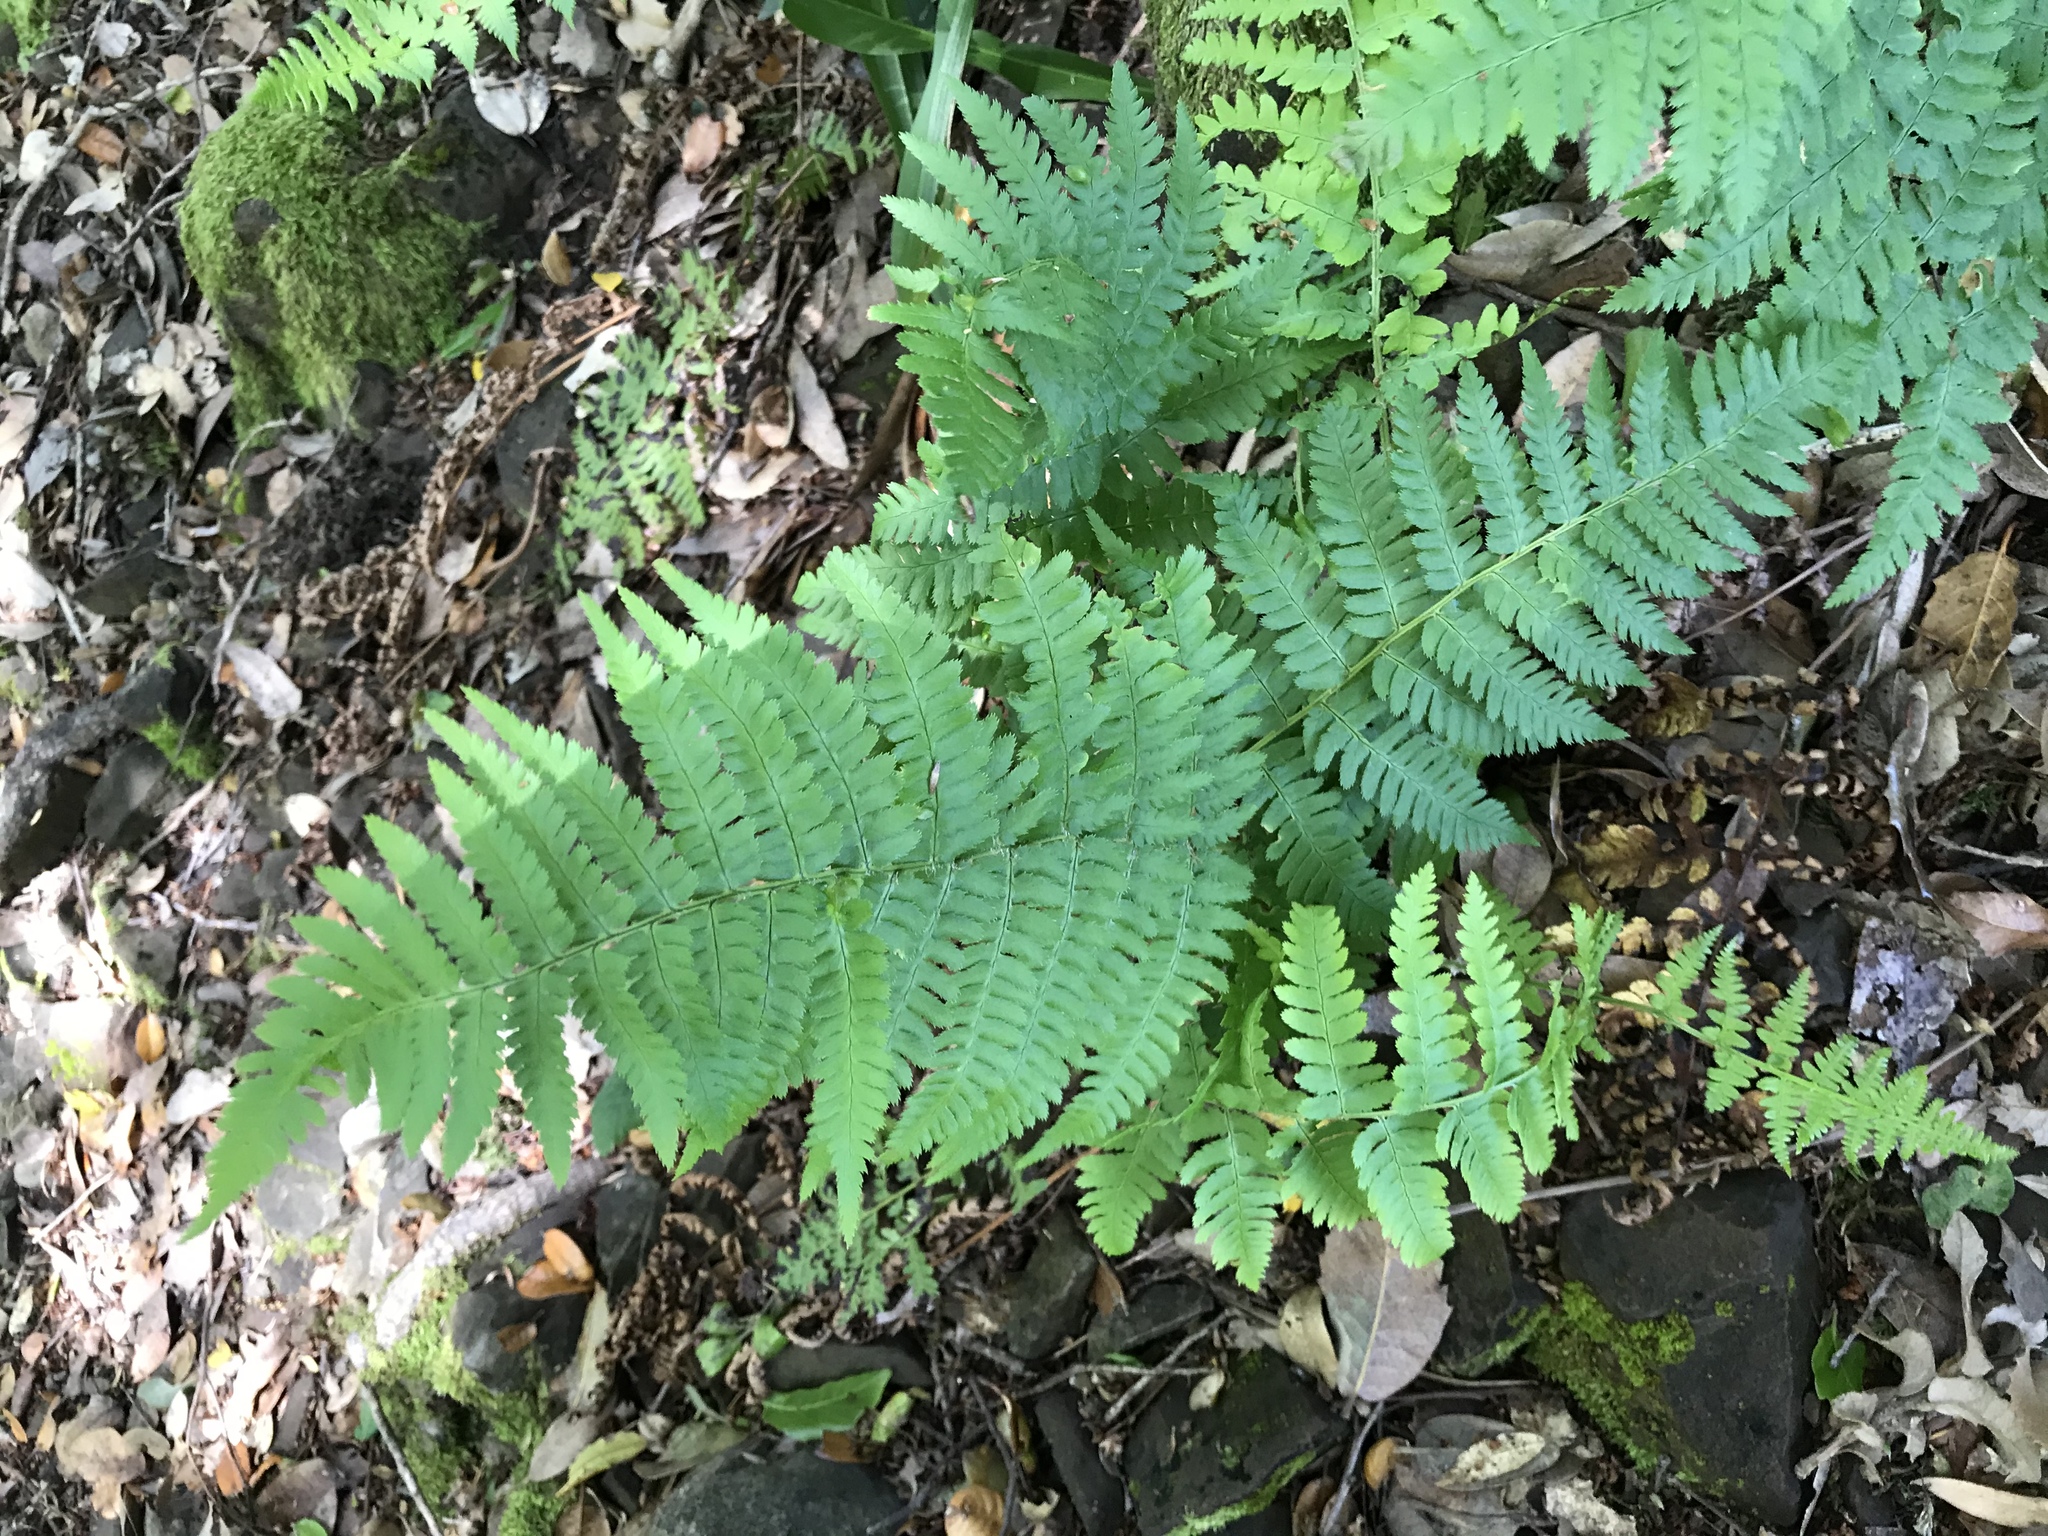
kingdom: Plantae
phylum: Tracheophyta
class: Polypodiopsida
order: Polypodiales
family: Dryopteridaceae
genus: Dryopteris
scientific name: Dryopteris arguta
